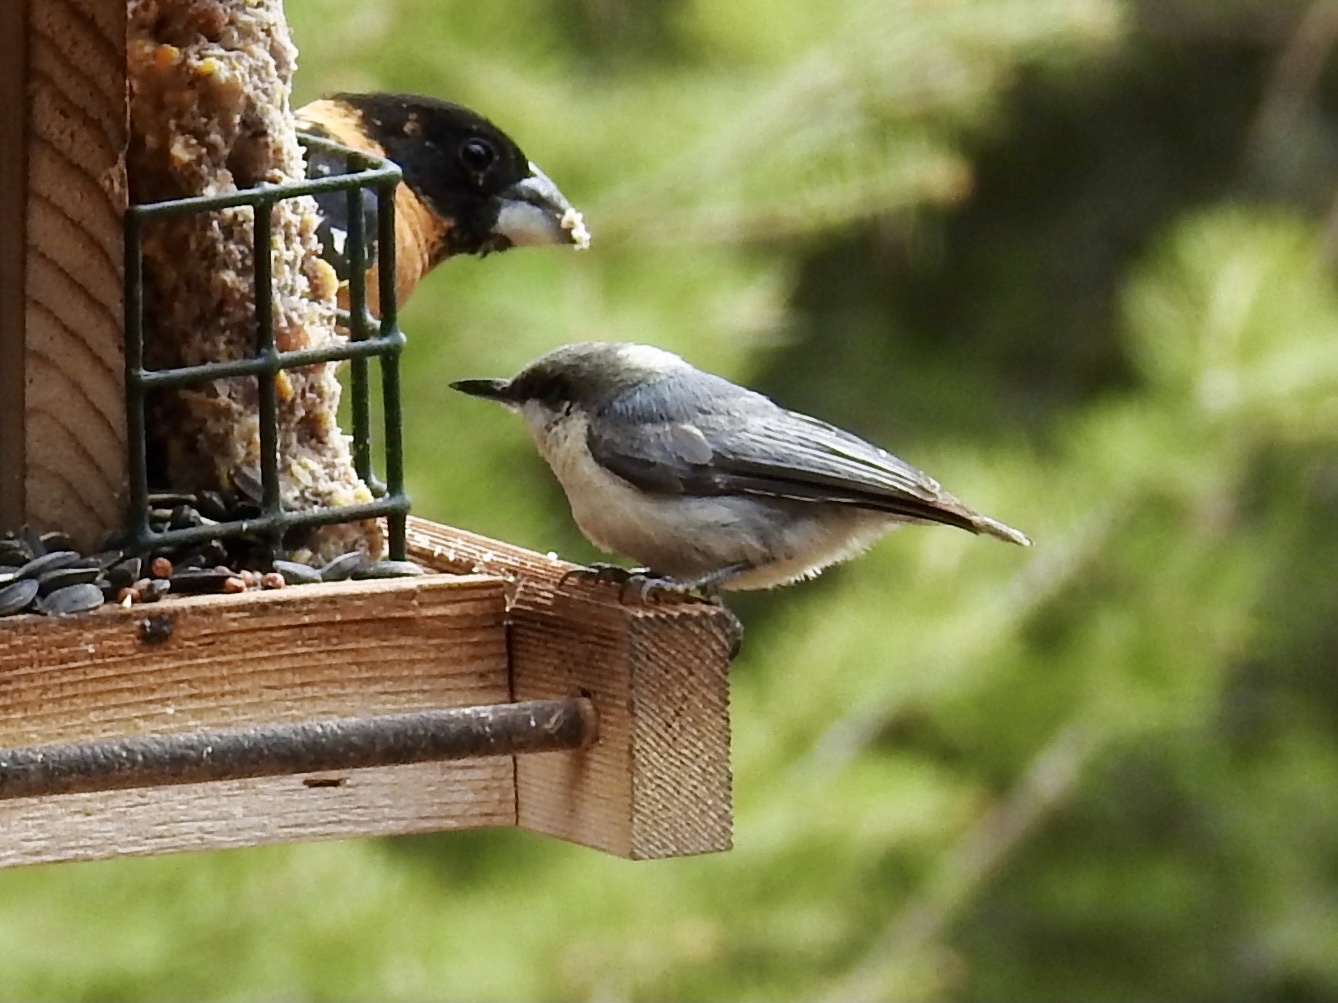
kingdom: Animalia
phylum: Chordata
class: Aves
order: Passeriformes
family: Sittidae
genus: Sitta
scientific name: Sitta pygmaea
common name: Pygmy nuthatch
